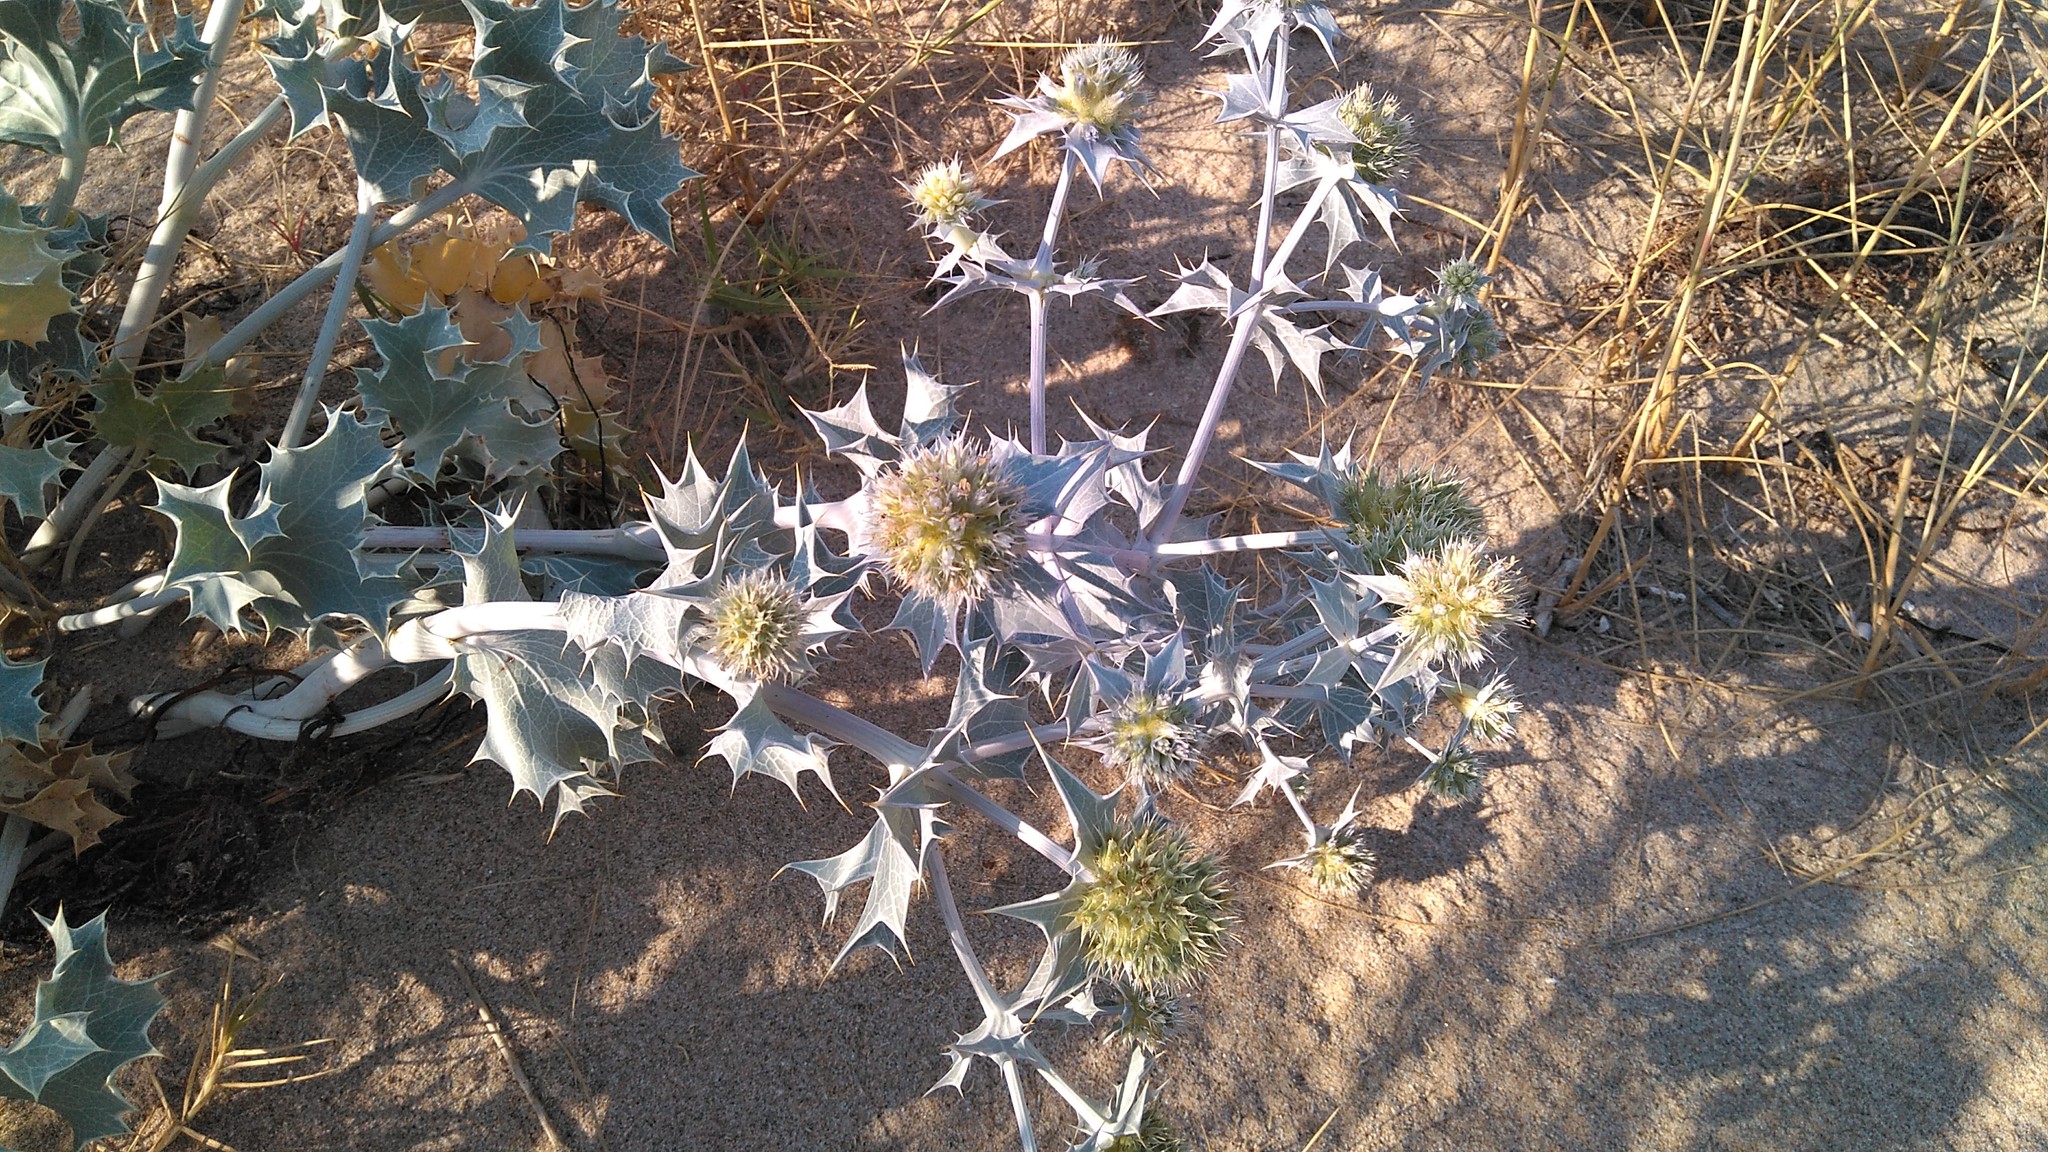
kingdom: Plantae
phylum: Tracheophyta
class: Magnoliopsida
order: Apiales
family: Apiaceae
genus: Eryngium
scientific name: Eryngium maritimum
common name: Sea-holly
